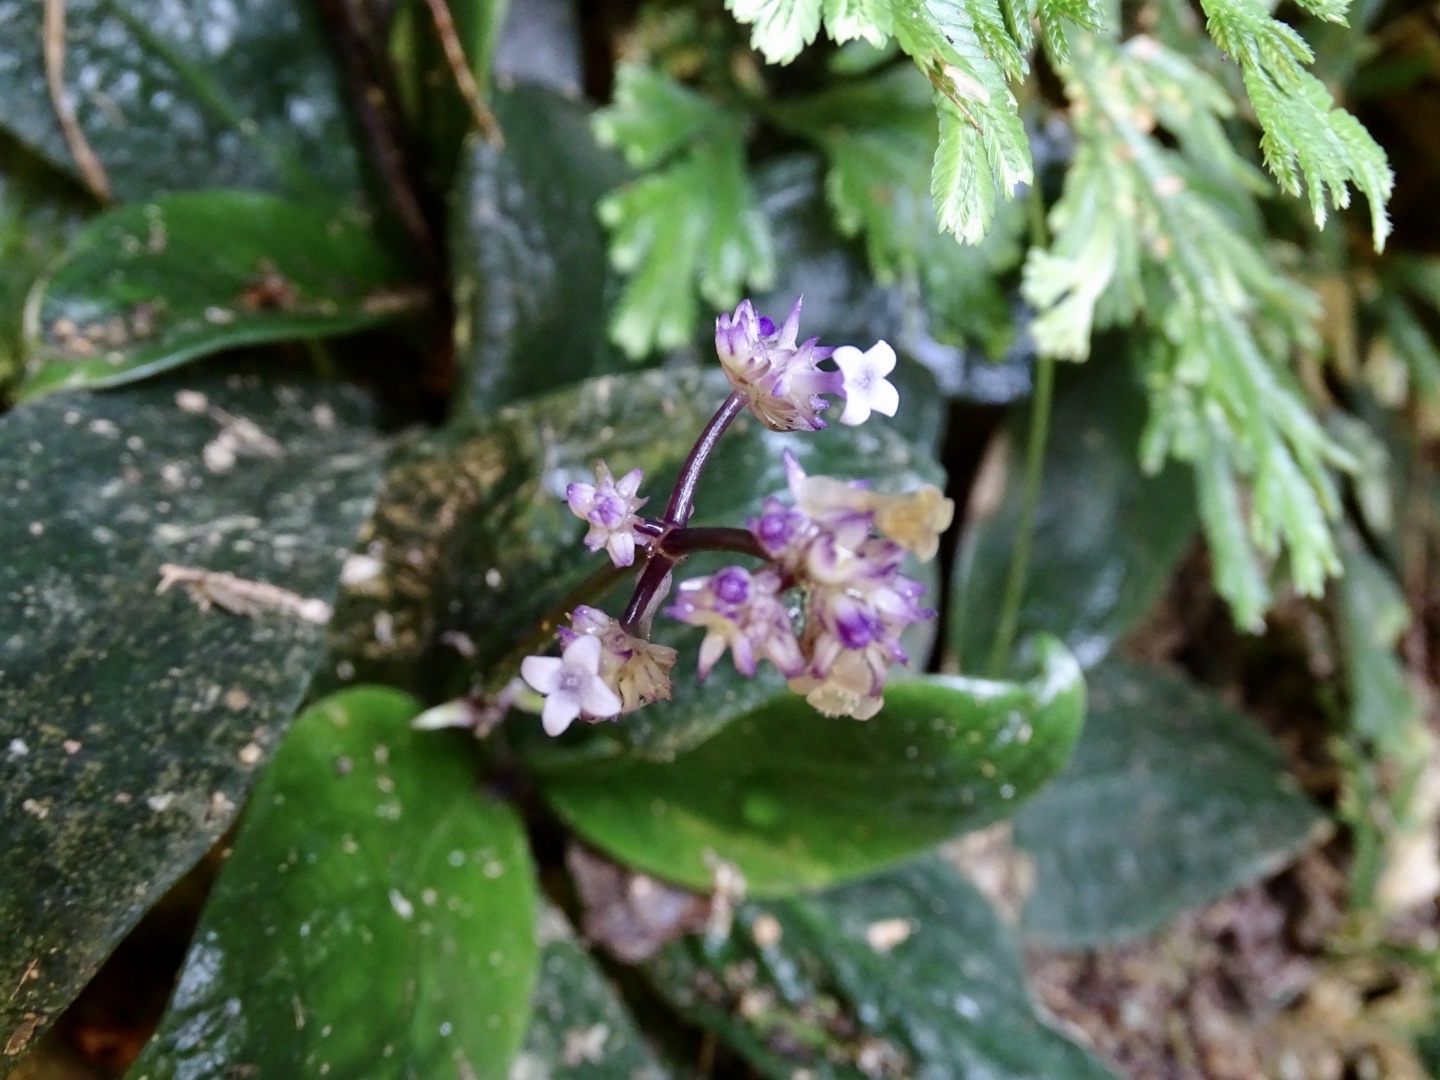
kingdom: Plantae
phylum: Tracheophyta
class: Magnoliopsida
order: Gentianales
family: Rubiaceae
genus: Hedyotis
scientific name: Hedyotis shiuyingiae
